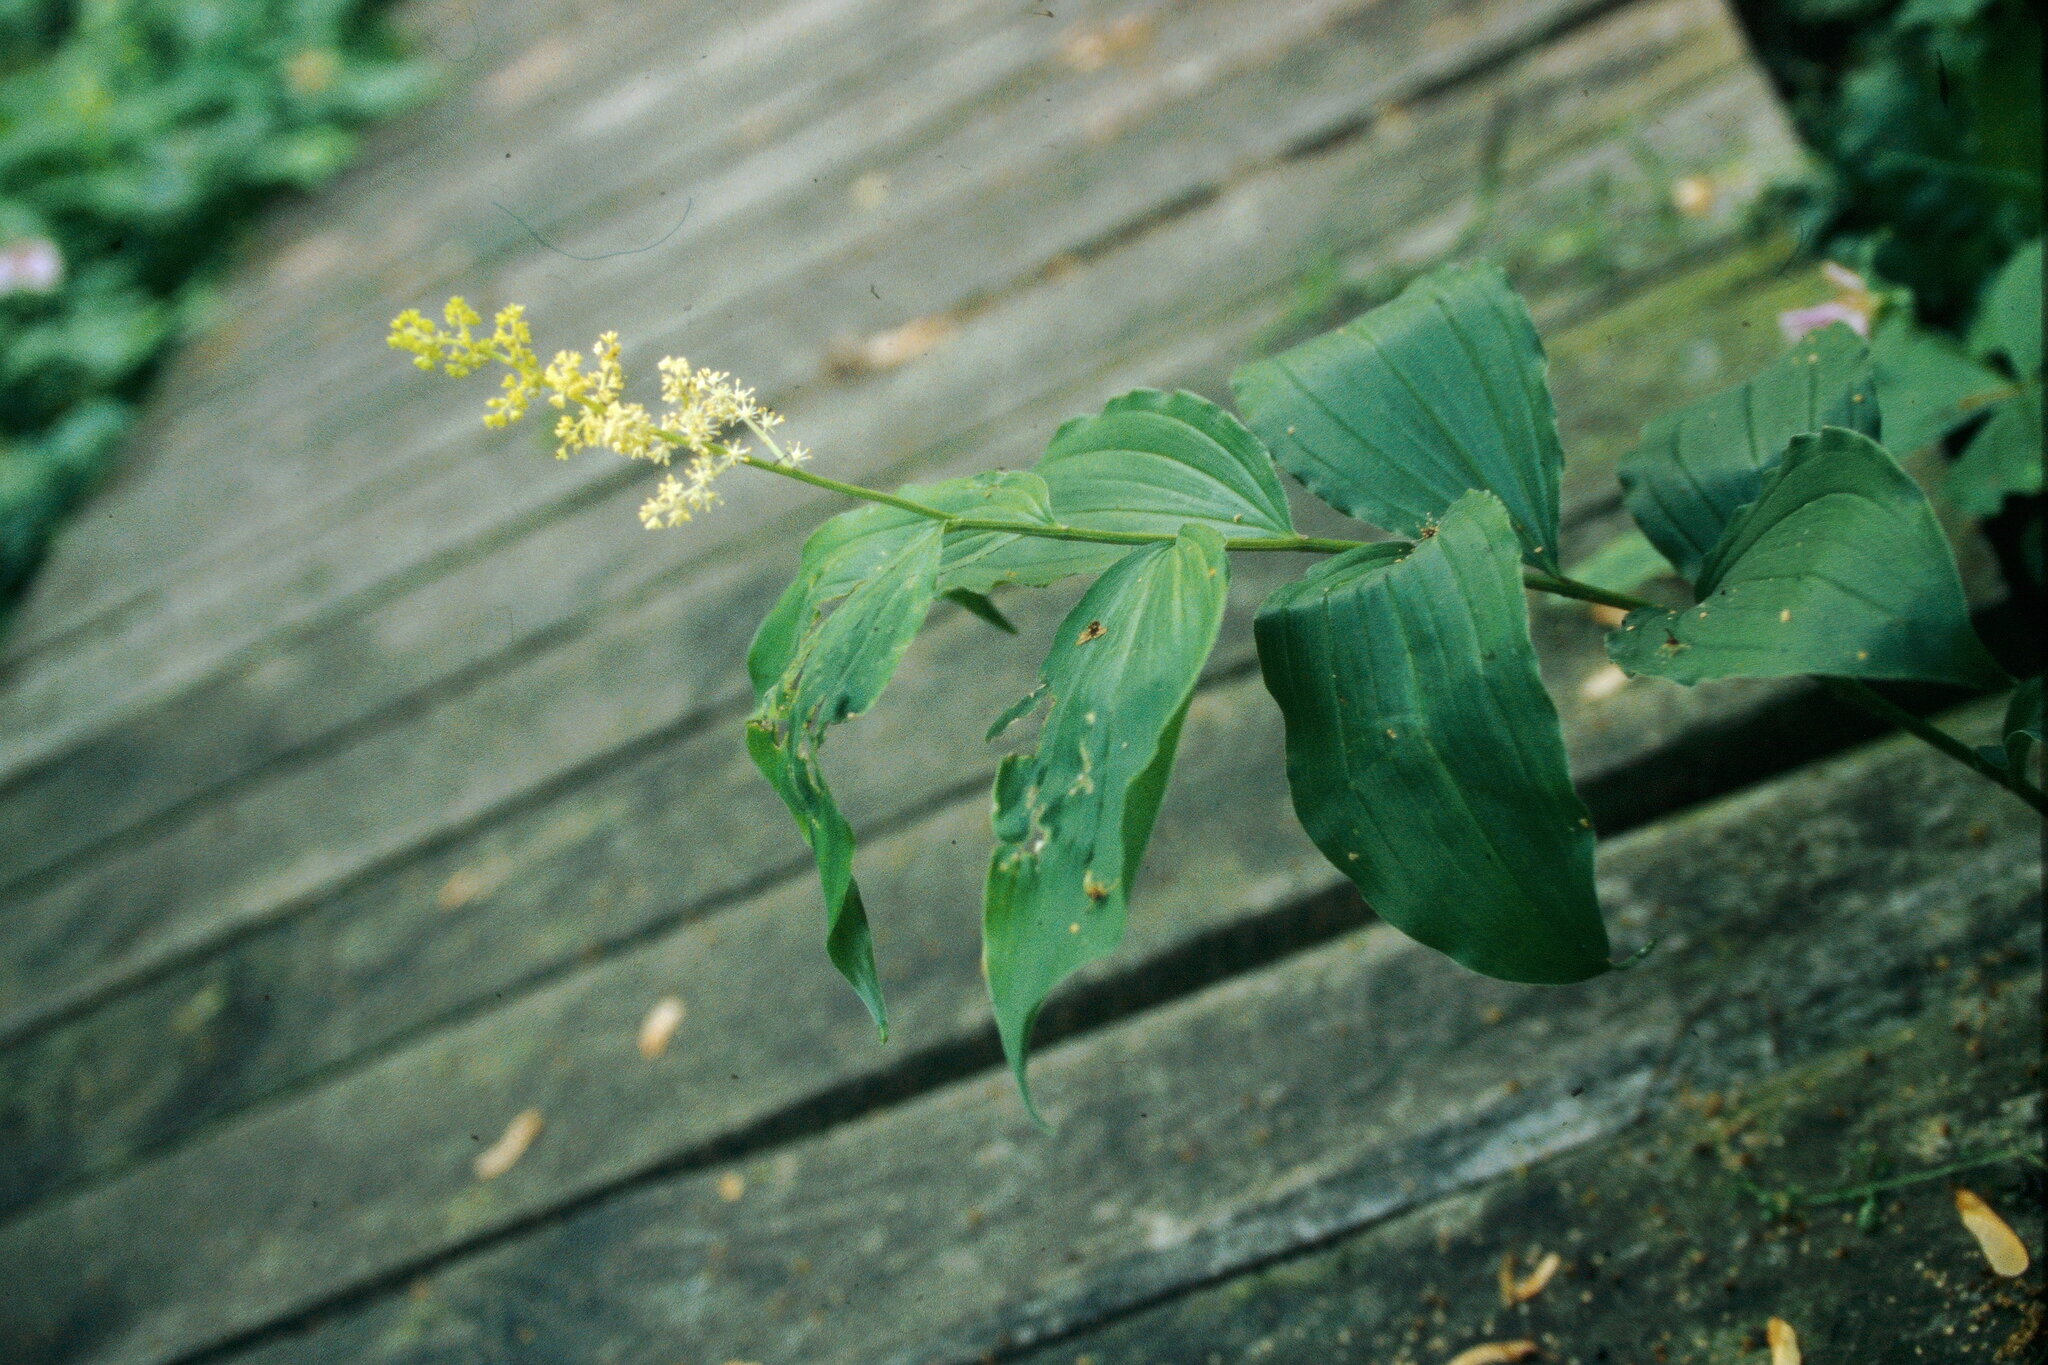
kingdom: Plantae
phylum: Tracheophyta
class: Liliopsida
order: Asparagales
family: Asparagaceae
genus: Maianthemum
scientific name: Maianthemum racemosum
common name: False spikenard
